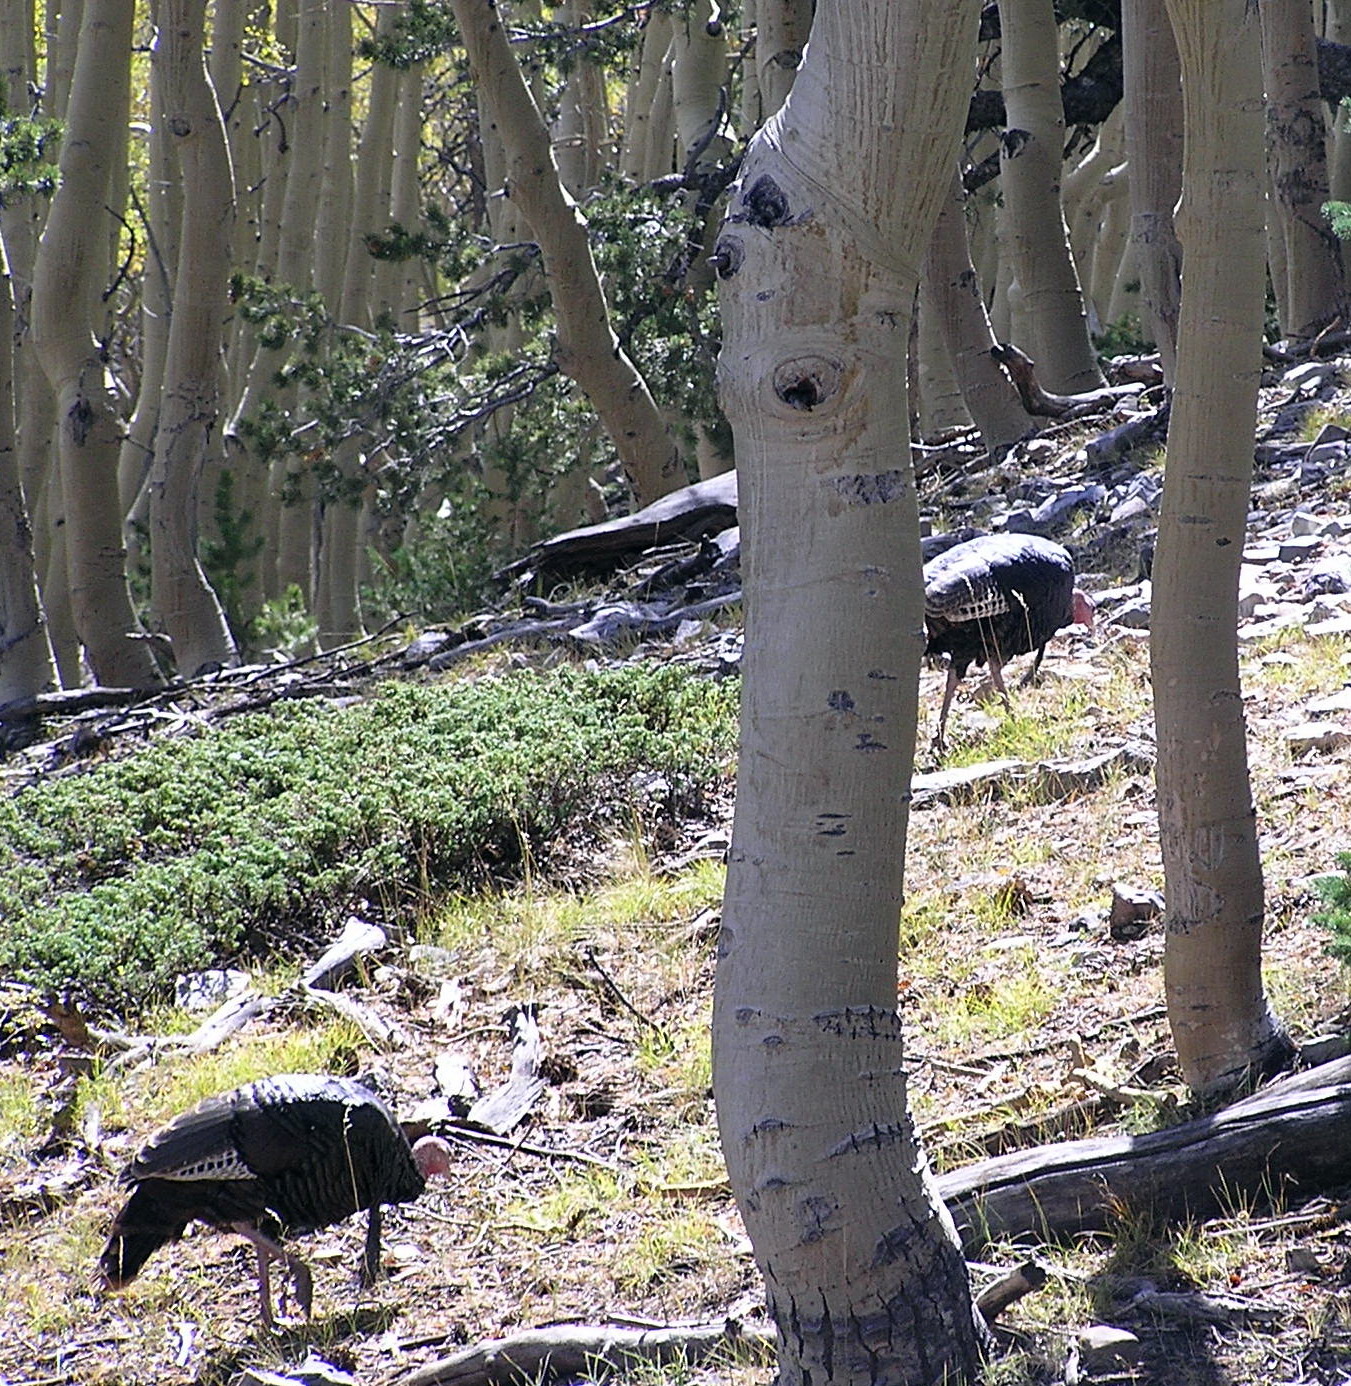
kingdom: Animalia
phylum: Chordata
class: Aves
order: Galliformes
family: Phasianidae
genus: Meleagris
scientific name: Meleagris gallopavo
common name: Wild turkey
